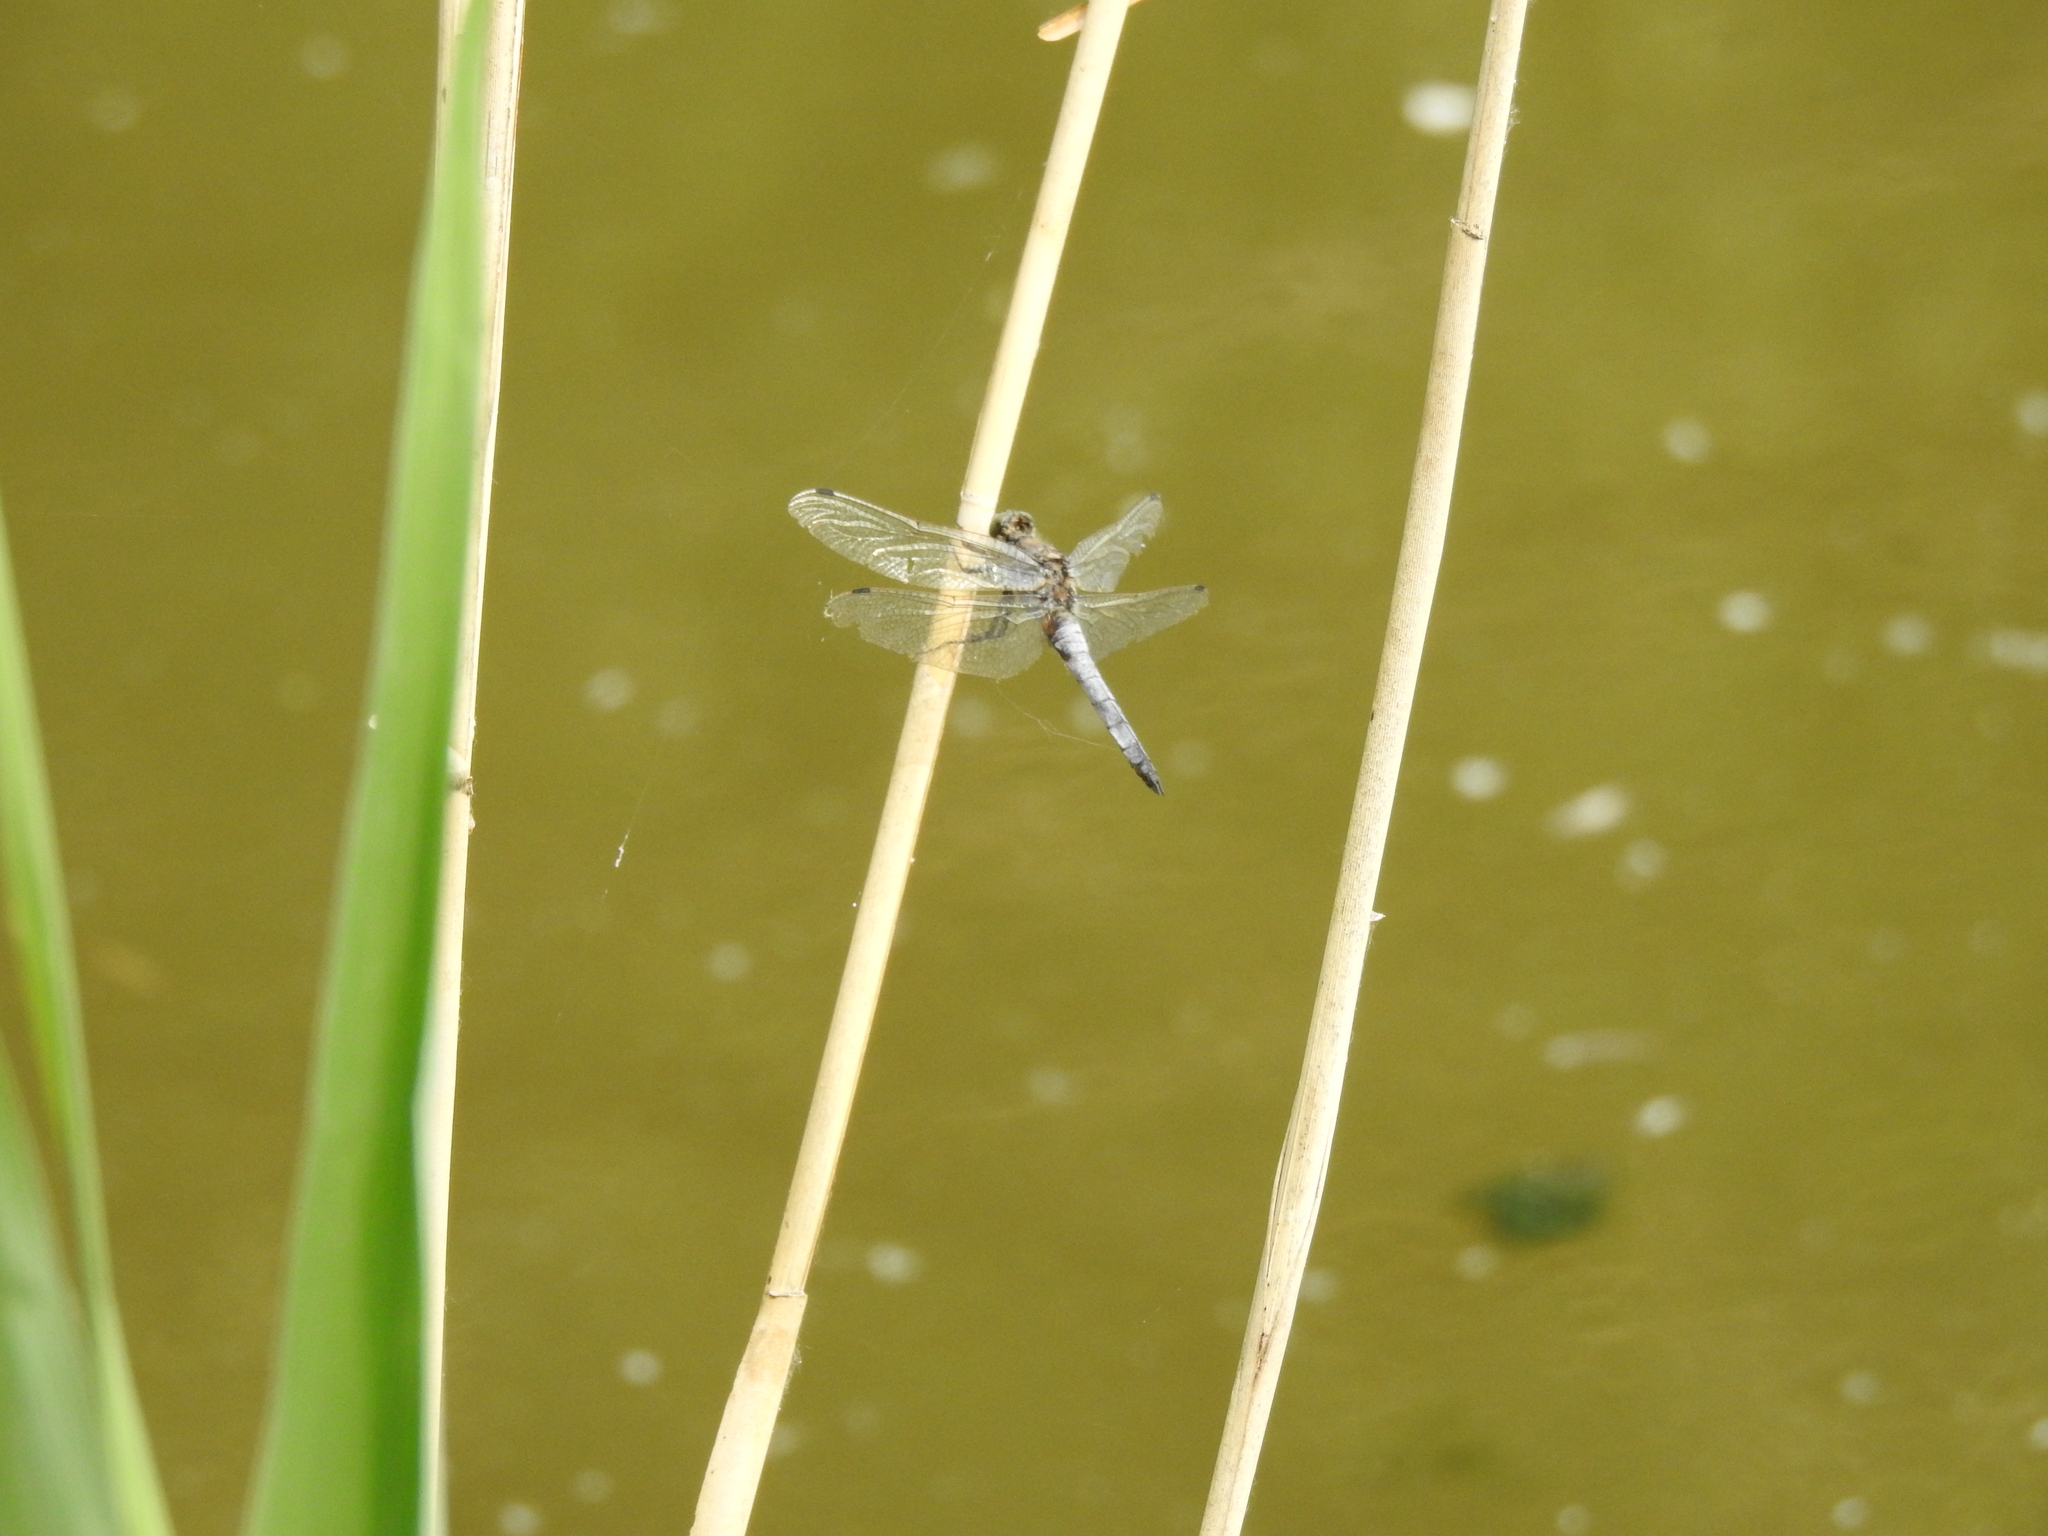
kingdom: Animalia
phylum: Arthropoda
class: Insecta
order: Odonata
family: Libellulidae
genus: Orthetrum
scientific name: Orthetrum cancellatum
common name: Black-tailed skimmer
